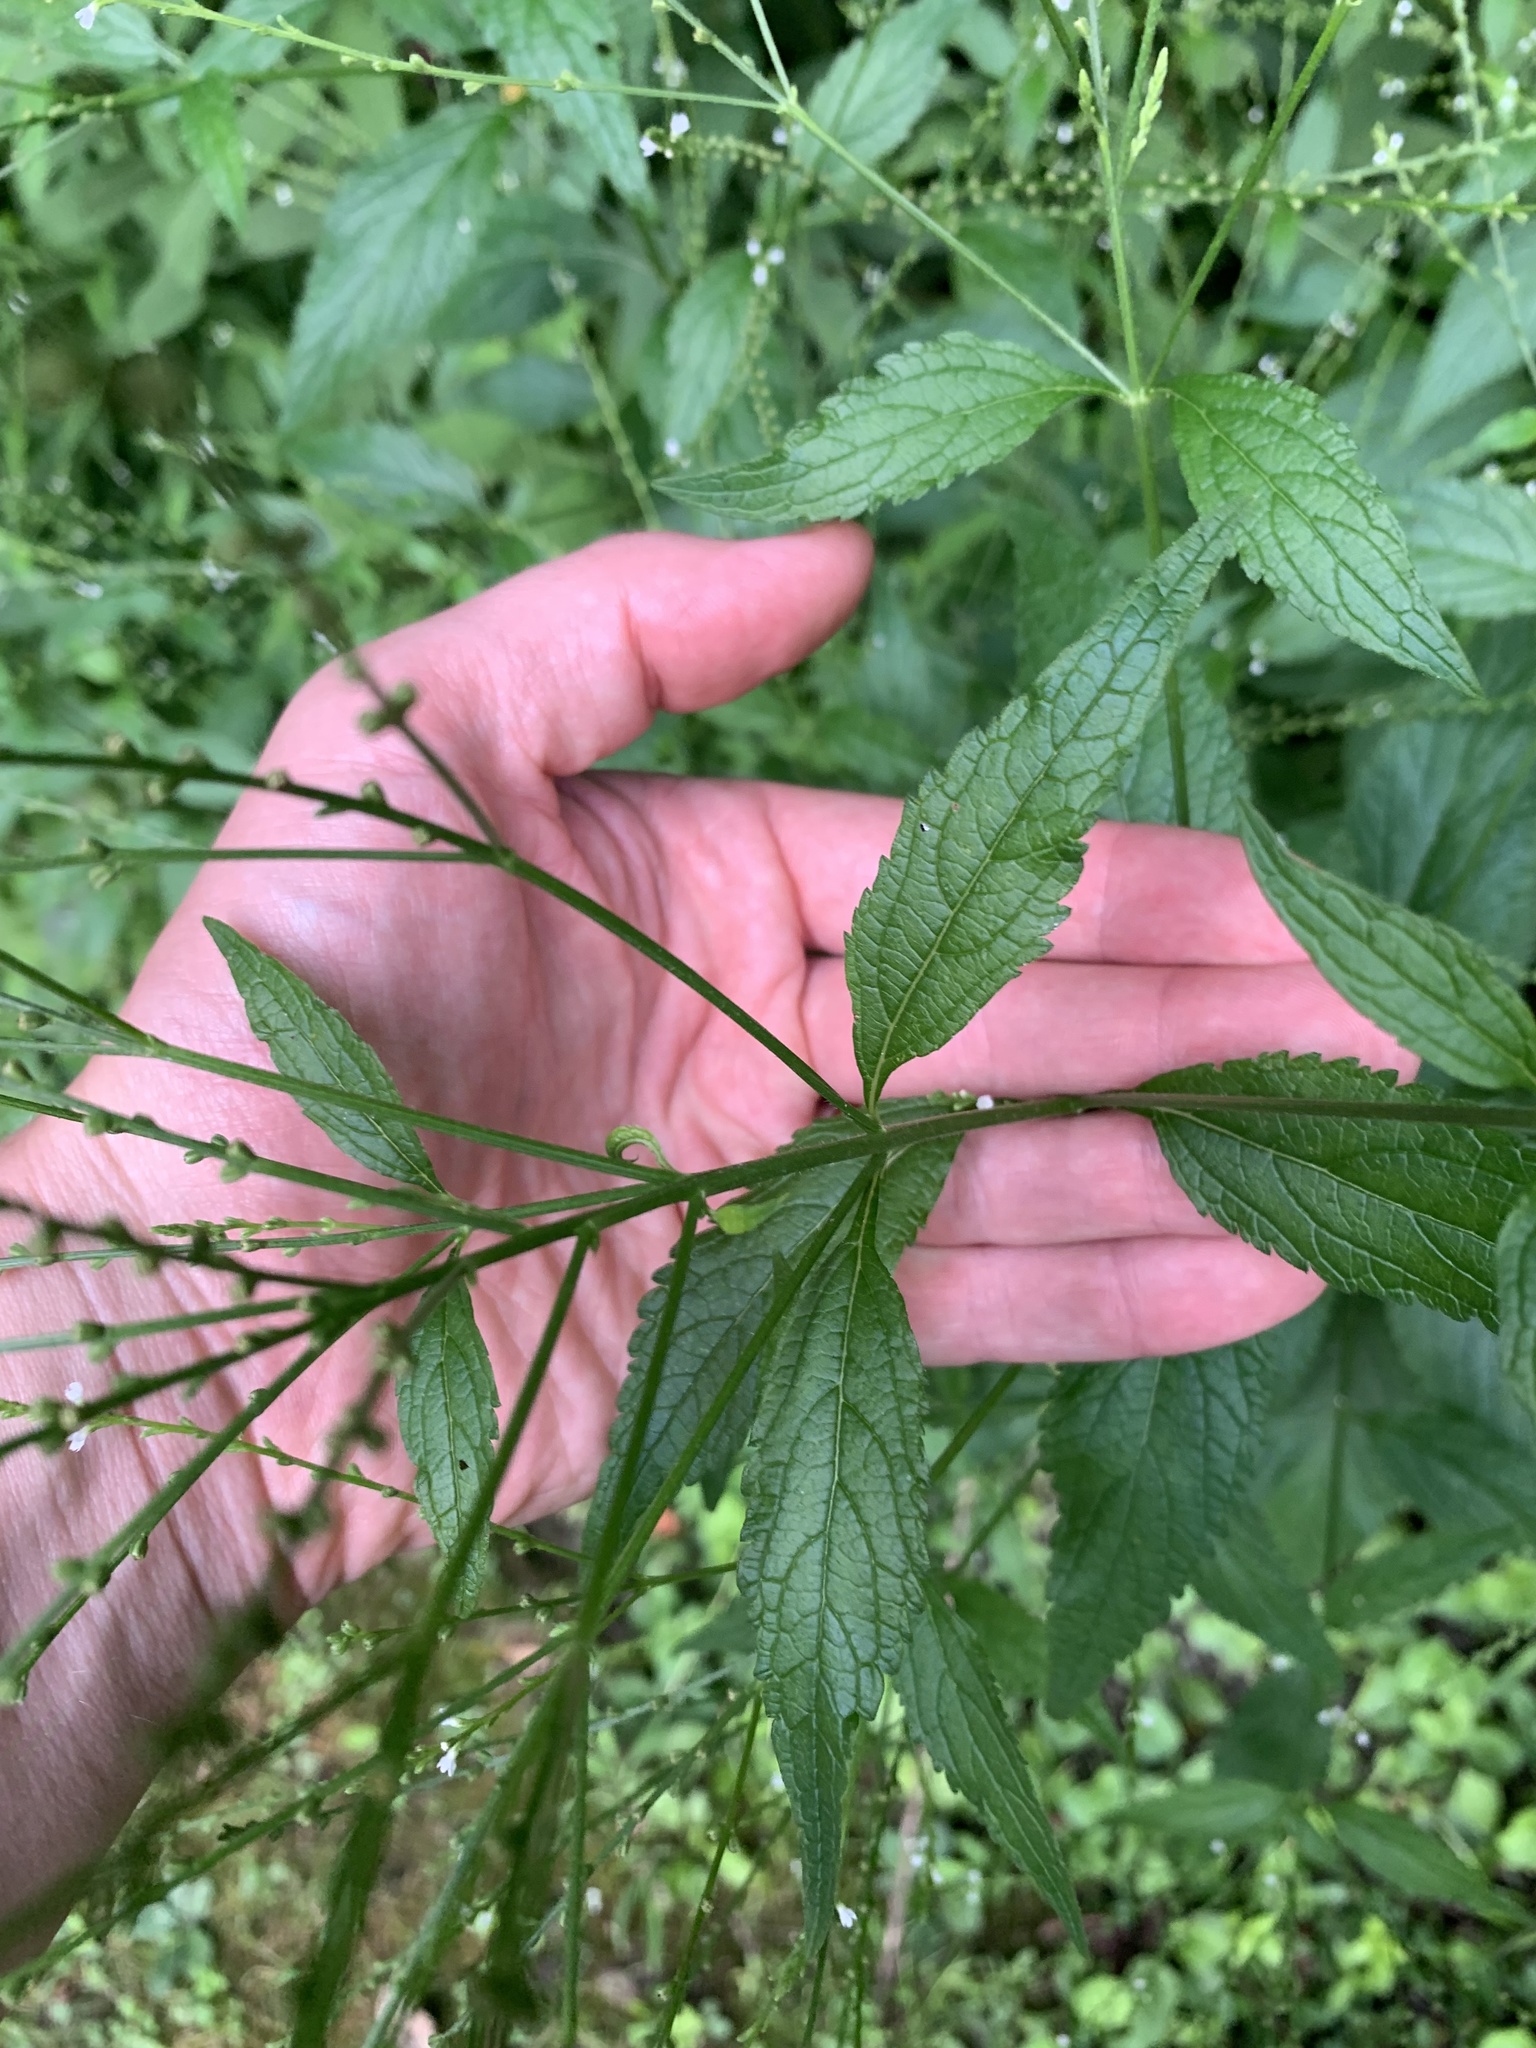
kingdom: Plantae
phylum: Tracheophyta
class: Magnoliopsida
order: Lamiales
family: Verbenaceae
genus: Verbena
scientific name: Verbena urticifolia
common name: Nettle-leaved vervain
